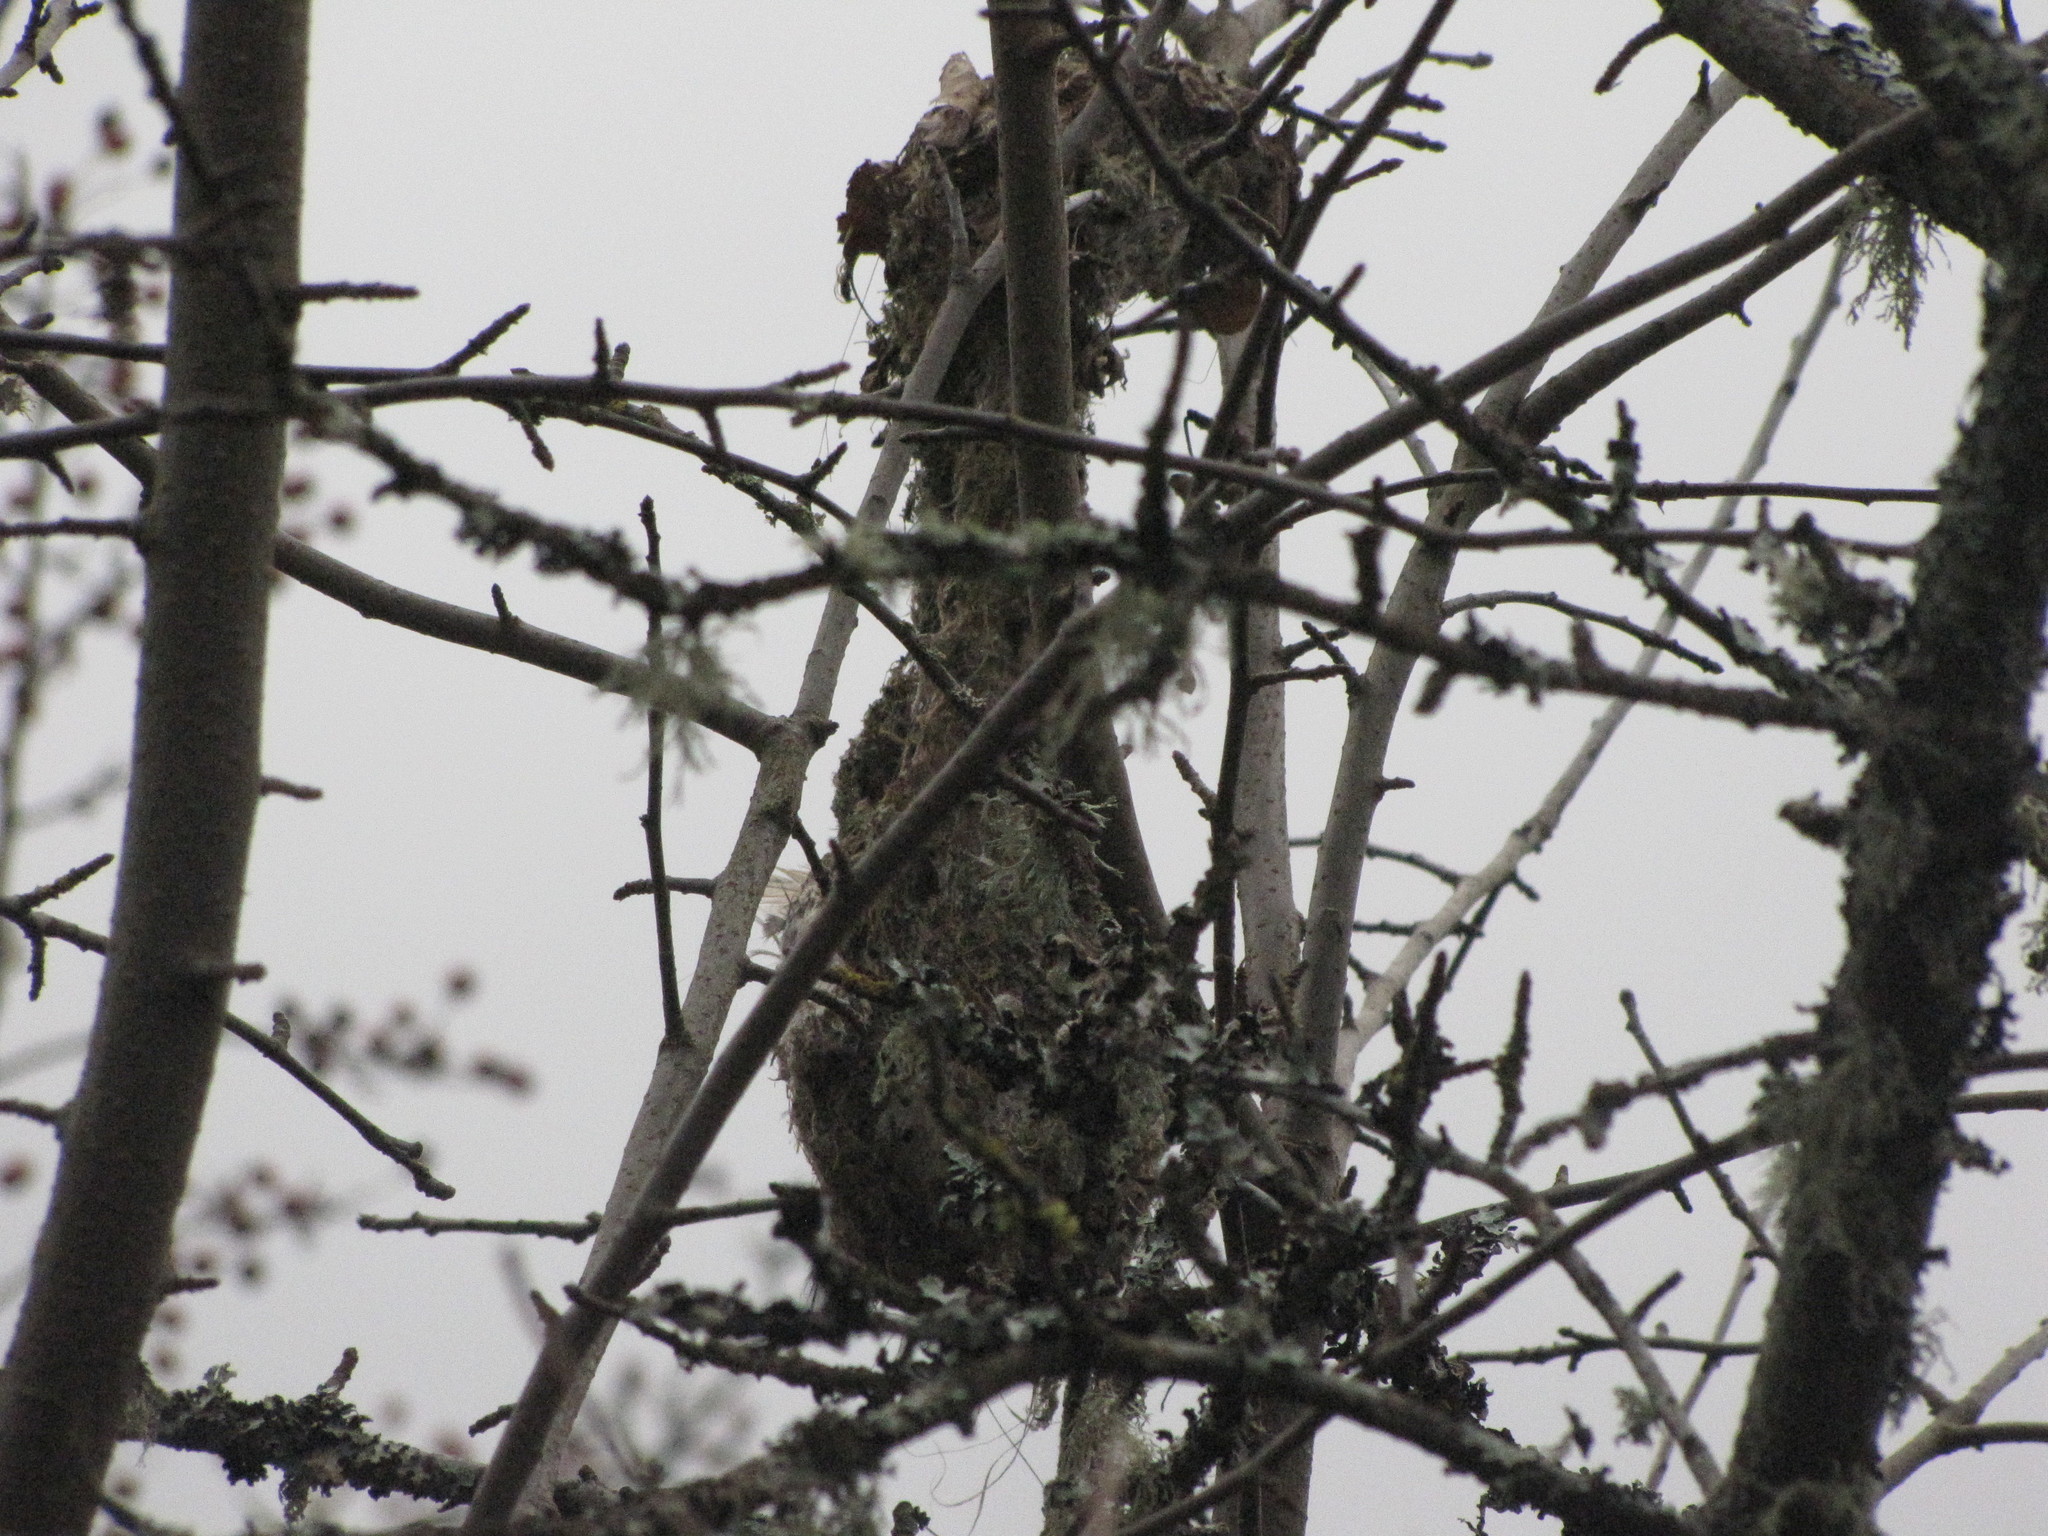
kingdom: Animalia
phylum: Chordata
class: Aves
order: Passeriformes
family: Aegithalidae
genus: Psaltriparus
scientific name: Psaltriparus minimus
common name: American bushtit
